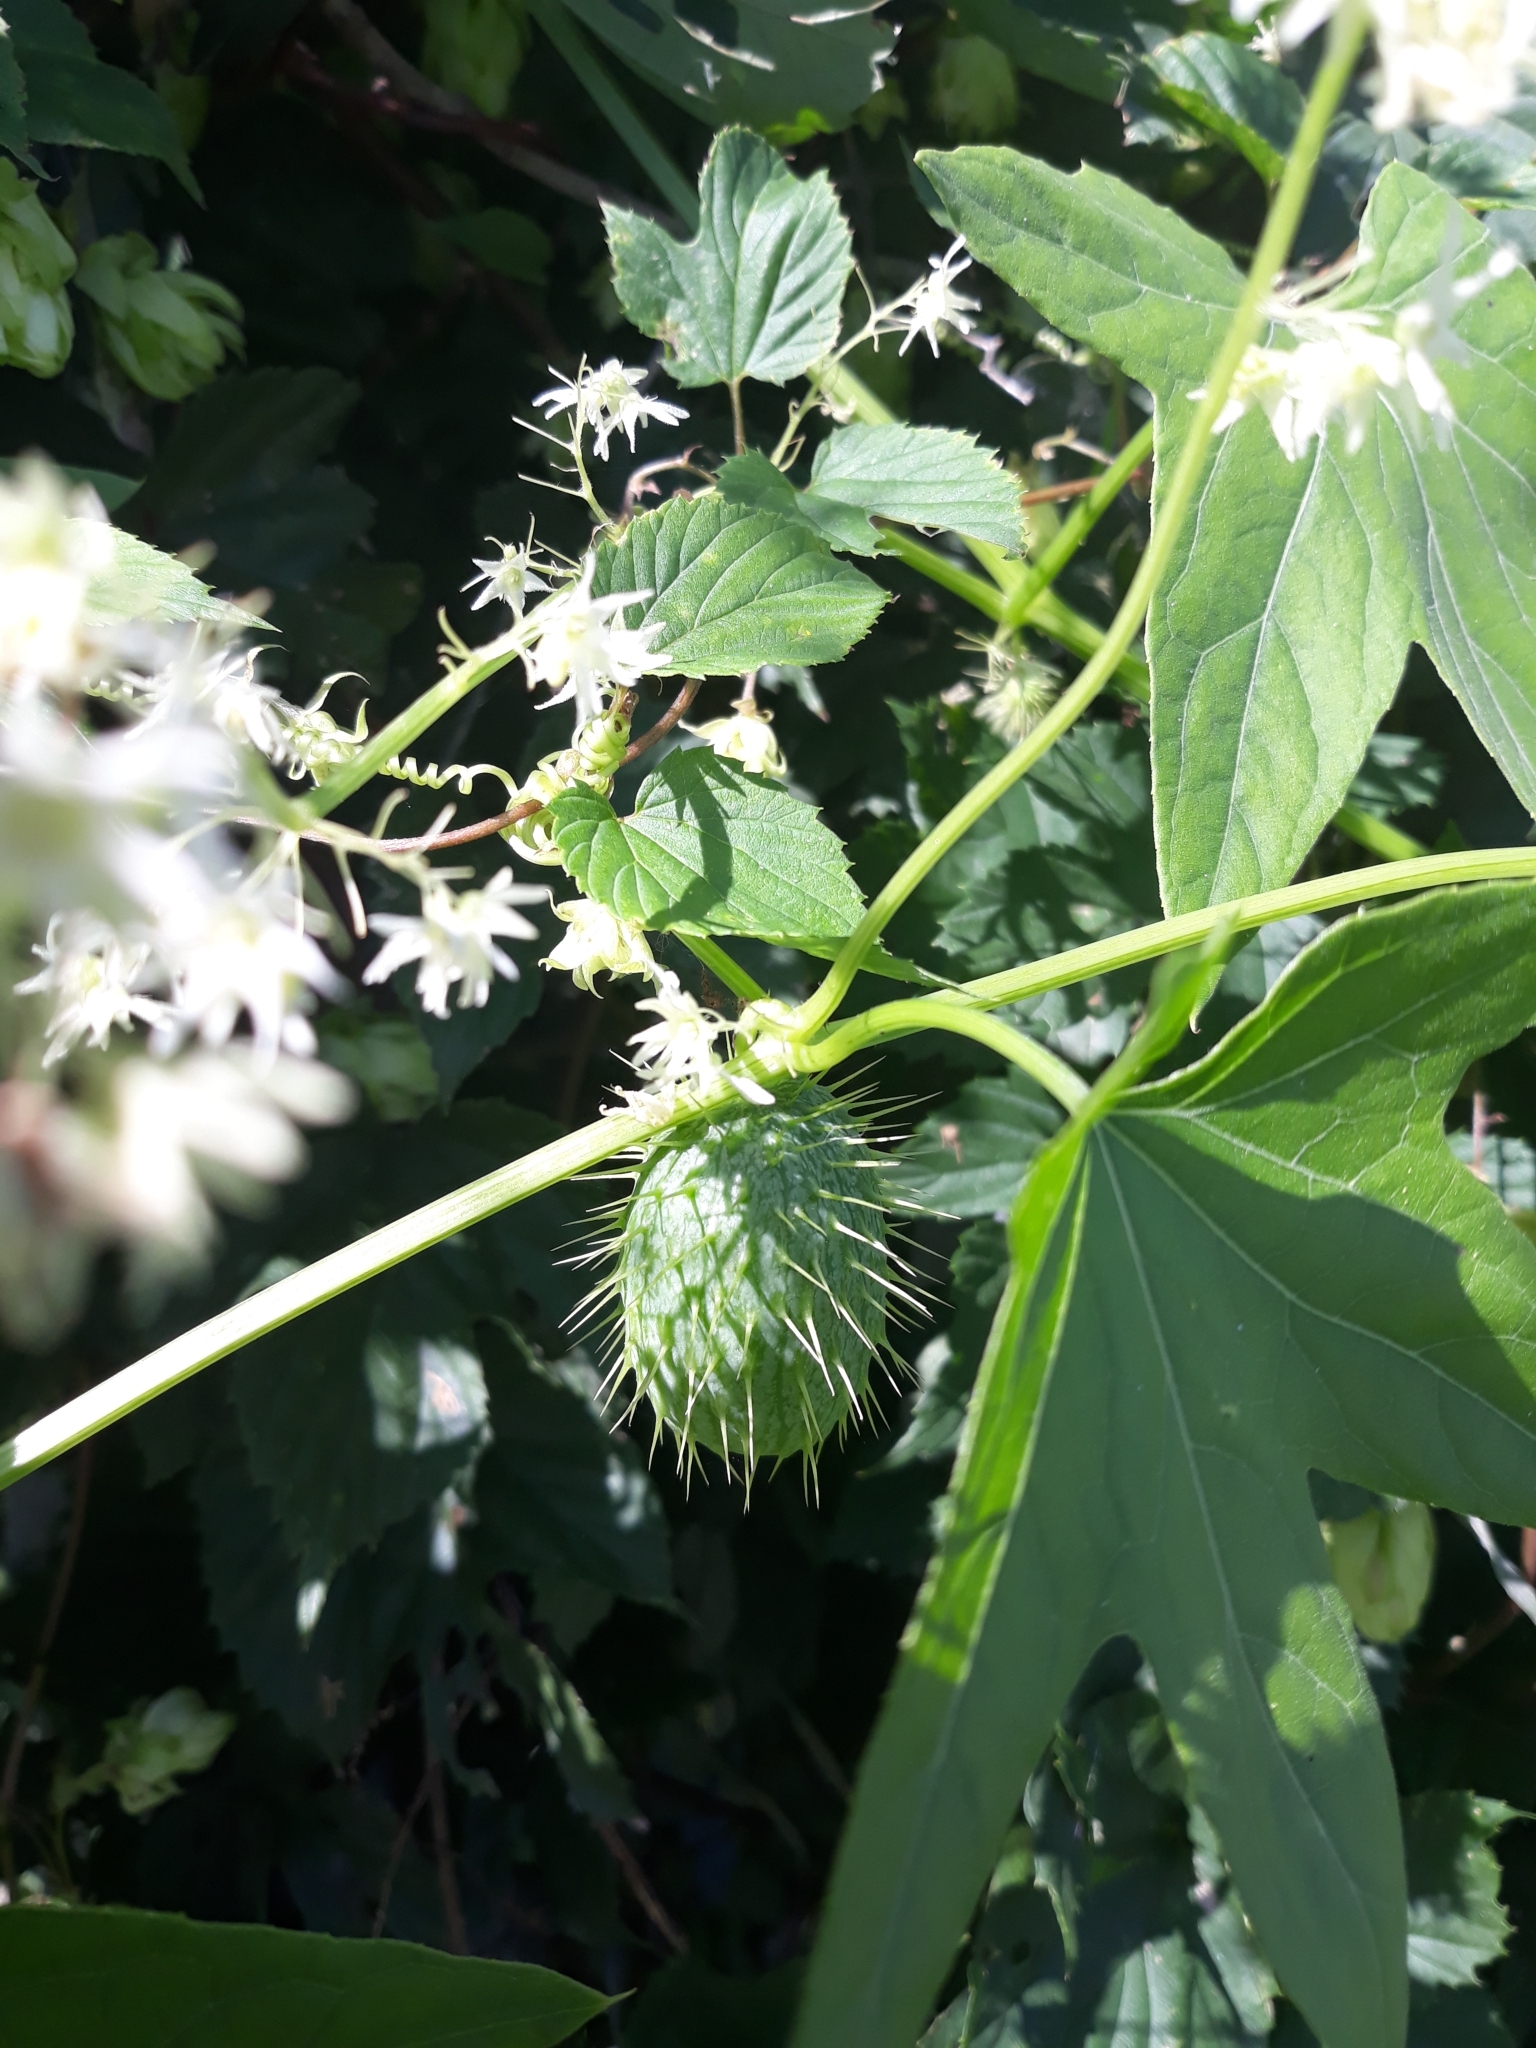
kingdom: Plantae
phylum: Tracheophyta
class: Magnoliopsida
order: Cucurbitales
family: Cucurbitaceae
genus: Echinocystis
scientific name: Echinocystis lobata
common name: Wild cucumber
